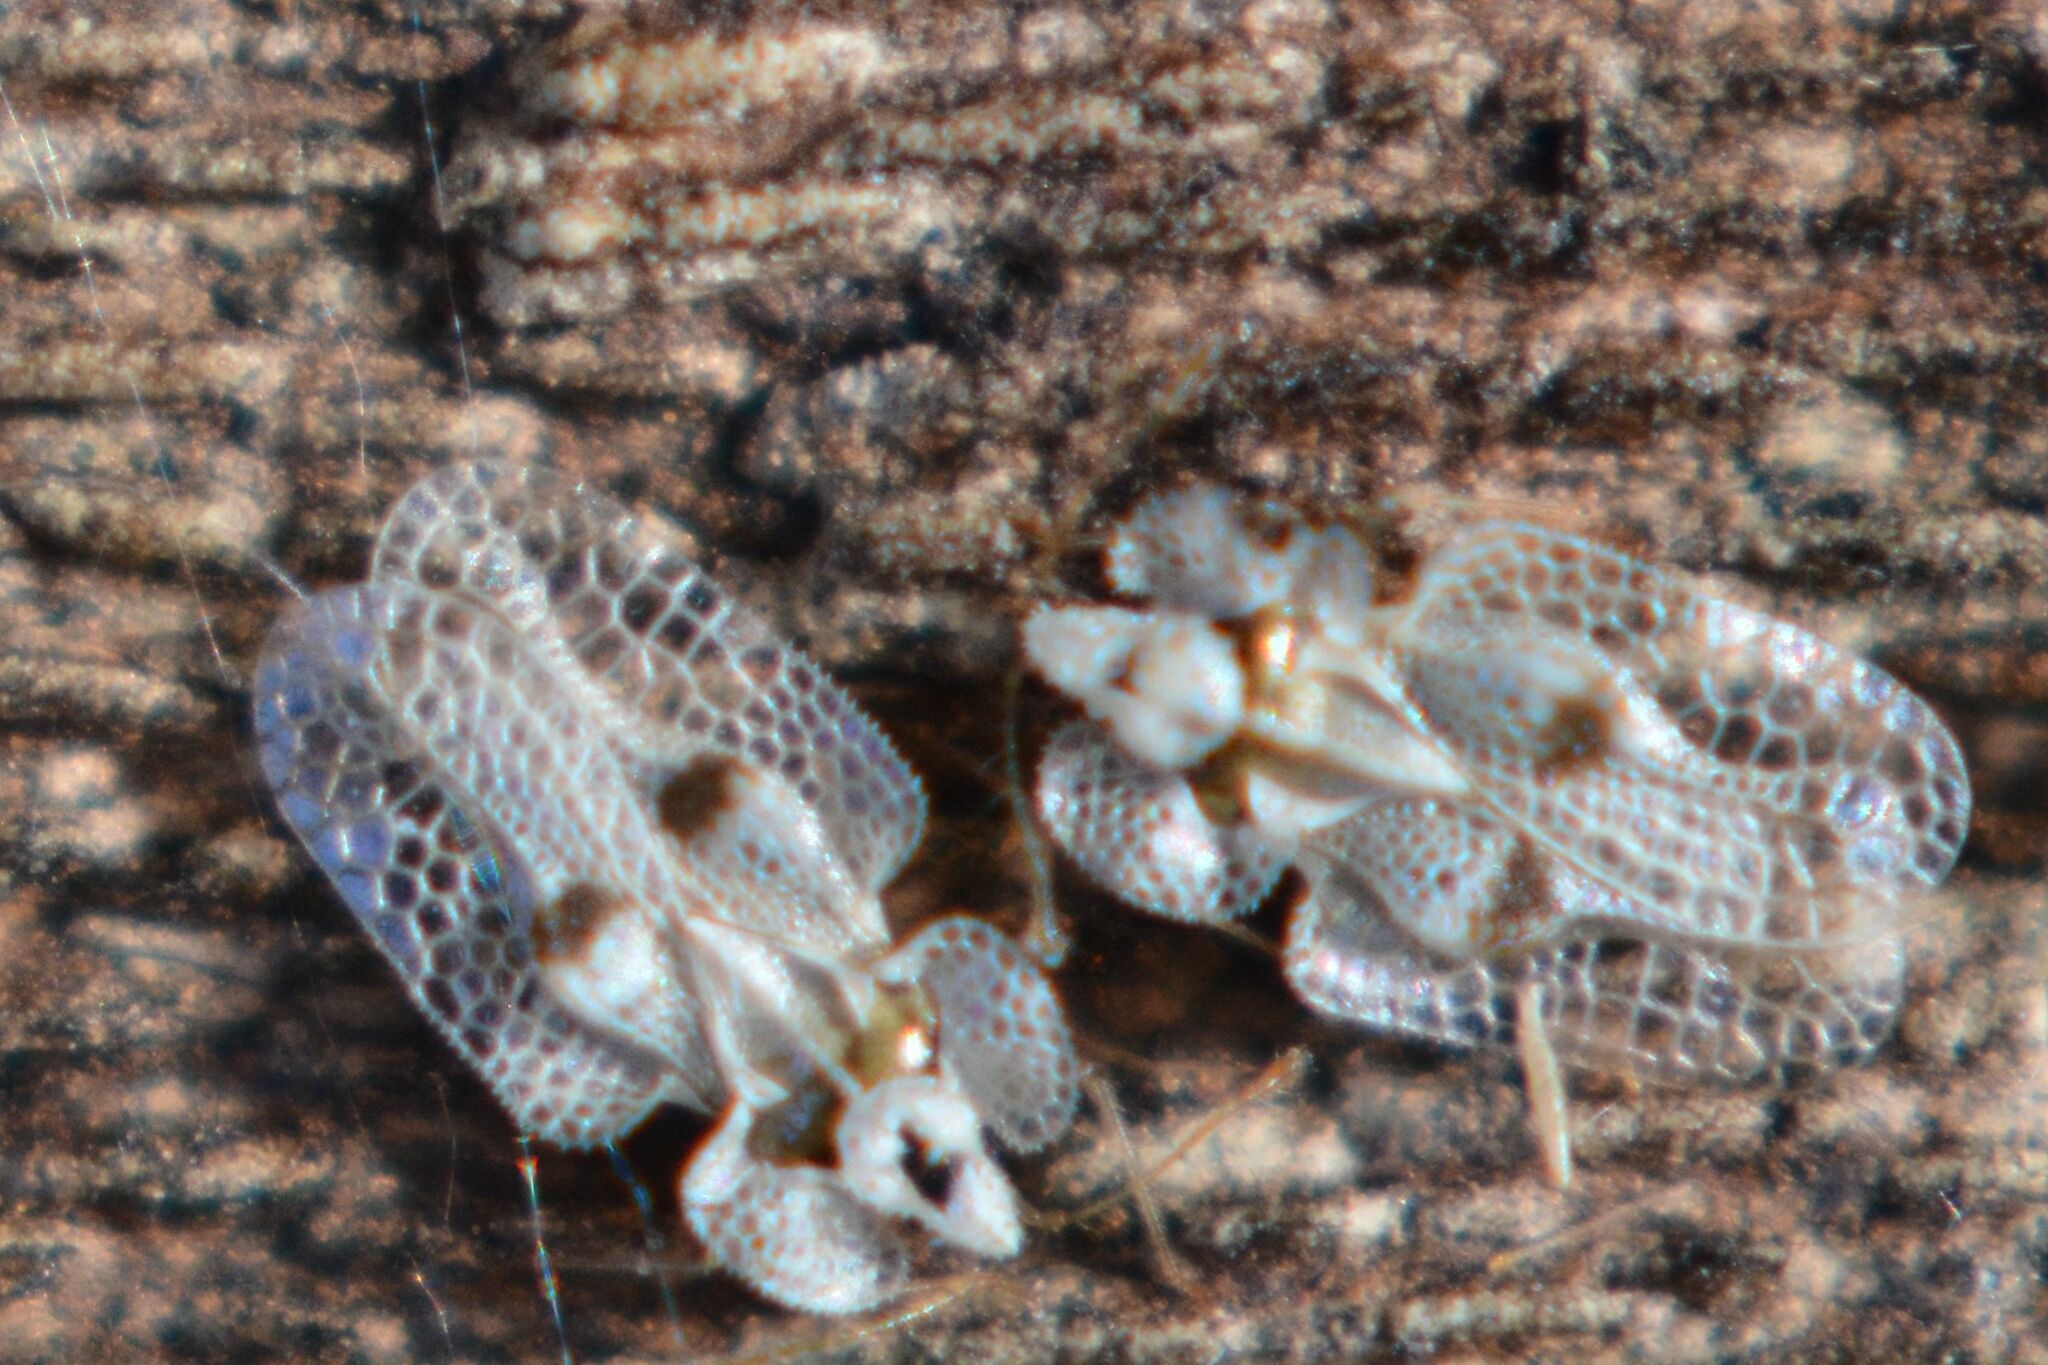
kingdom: Animalia
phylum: Arthropoda
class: Insecta
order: Hemiptera
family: Tingidae
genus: Corythucha
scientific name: Corythucha ciliata
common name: Sycamore lace bug
